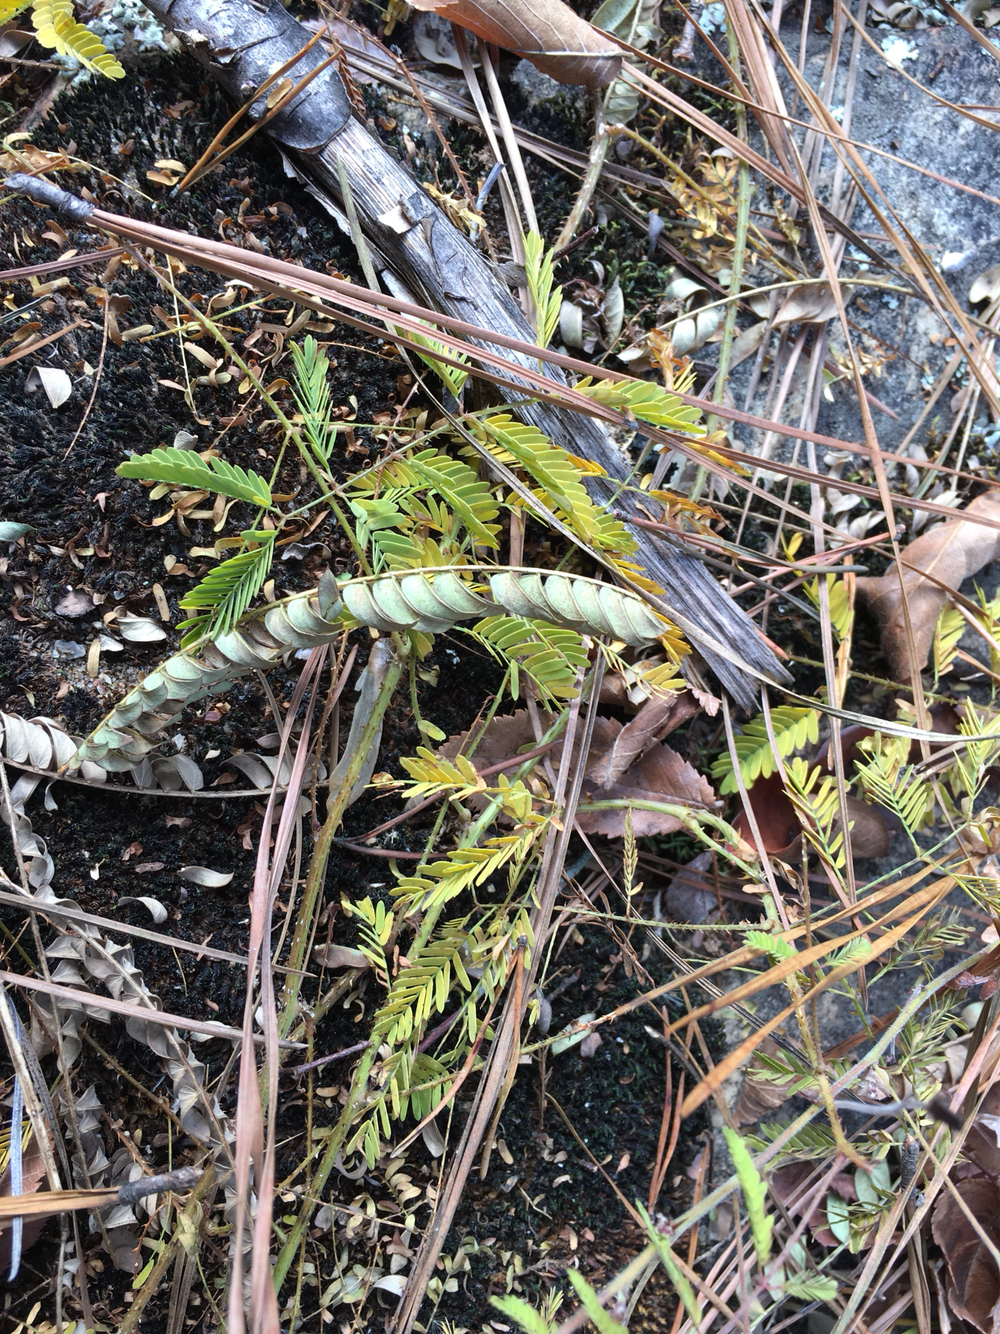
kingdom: Plantae
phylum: Tracheophyta
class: Magnoliopsida
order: Fabales
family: Fabaceae
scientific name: Fabaceae
